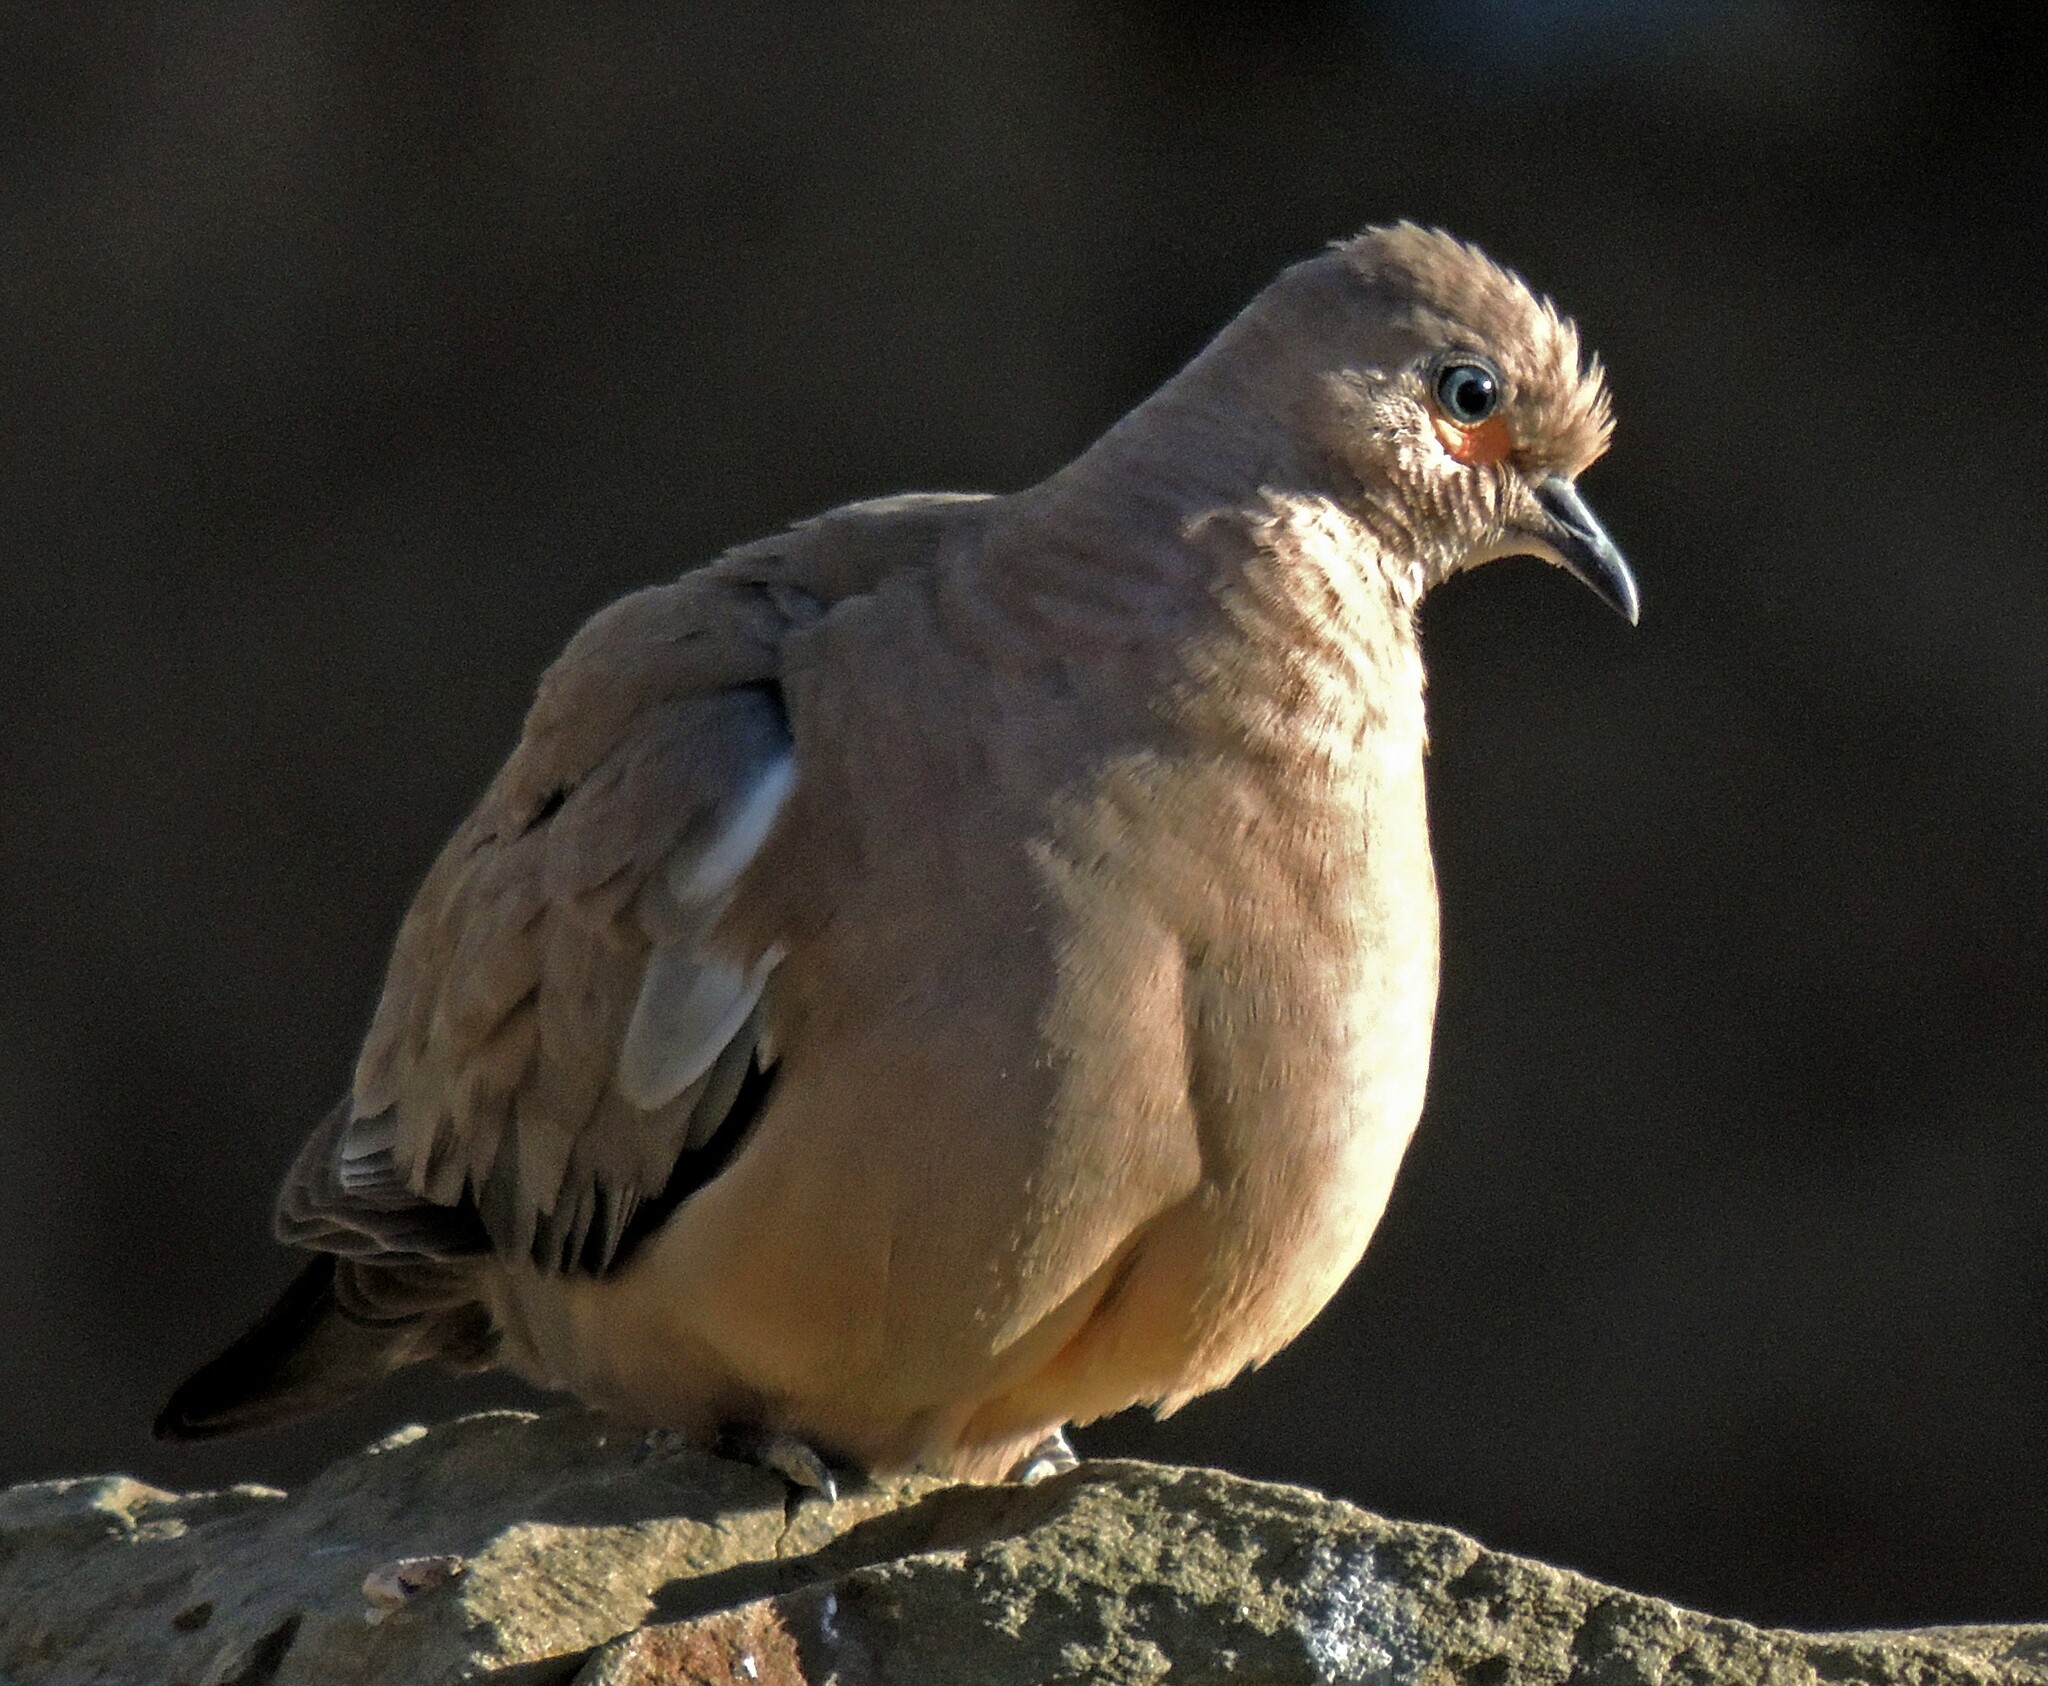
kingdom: Animalia
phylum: Chordata
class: Aves
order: Columbiformes
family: Columbidae
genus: Metriopelia
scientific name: Metriopelia melanoptera
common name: Black-winged ground dove
